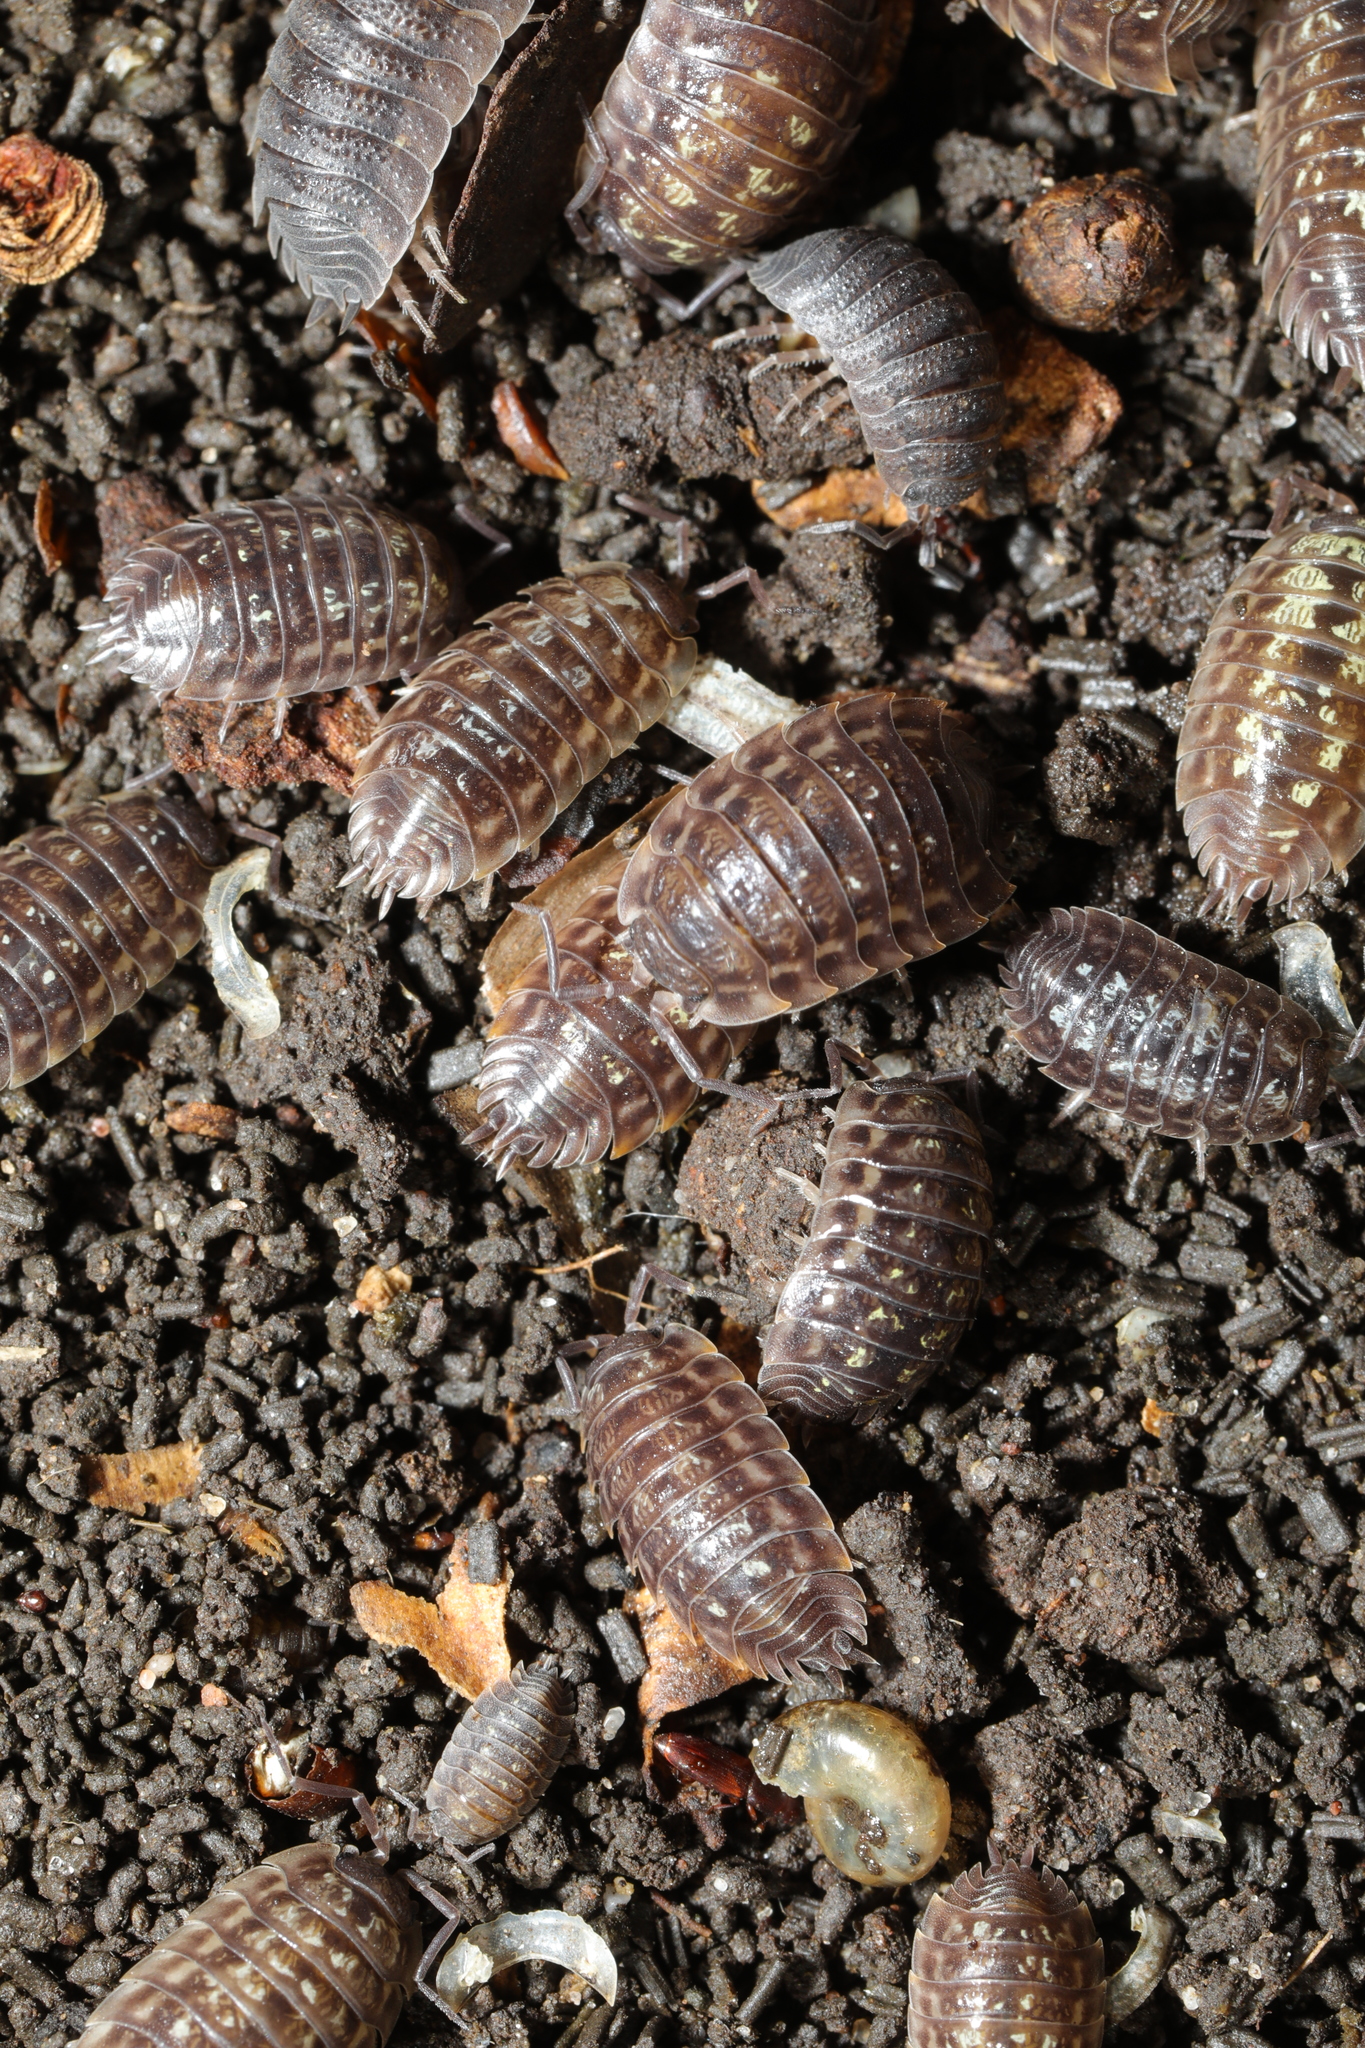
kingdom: Animalia
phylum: Arthropoda
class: Malacostraca
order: Isopoda
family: Oniscidae
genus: Oniscus
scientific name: Oniscus asellus
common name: Common shiny woodlouse
